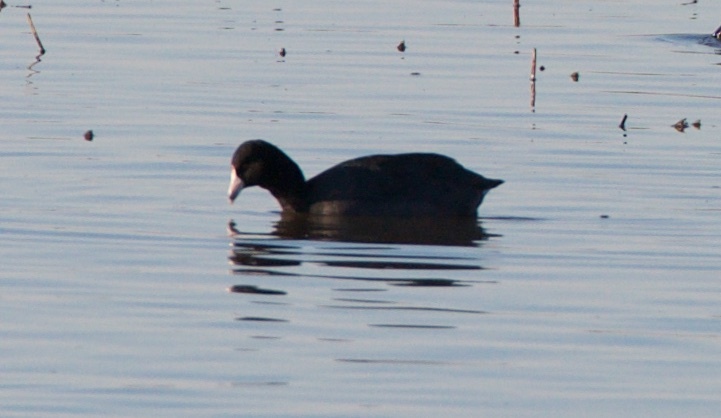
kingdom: Animalia
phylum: Chordata
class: Aves
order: Gruiformes
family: Rallidae
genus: Fulica
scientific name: Fulica americana
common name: American coot
